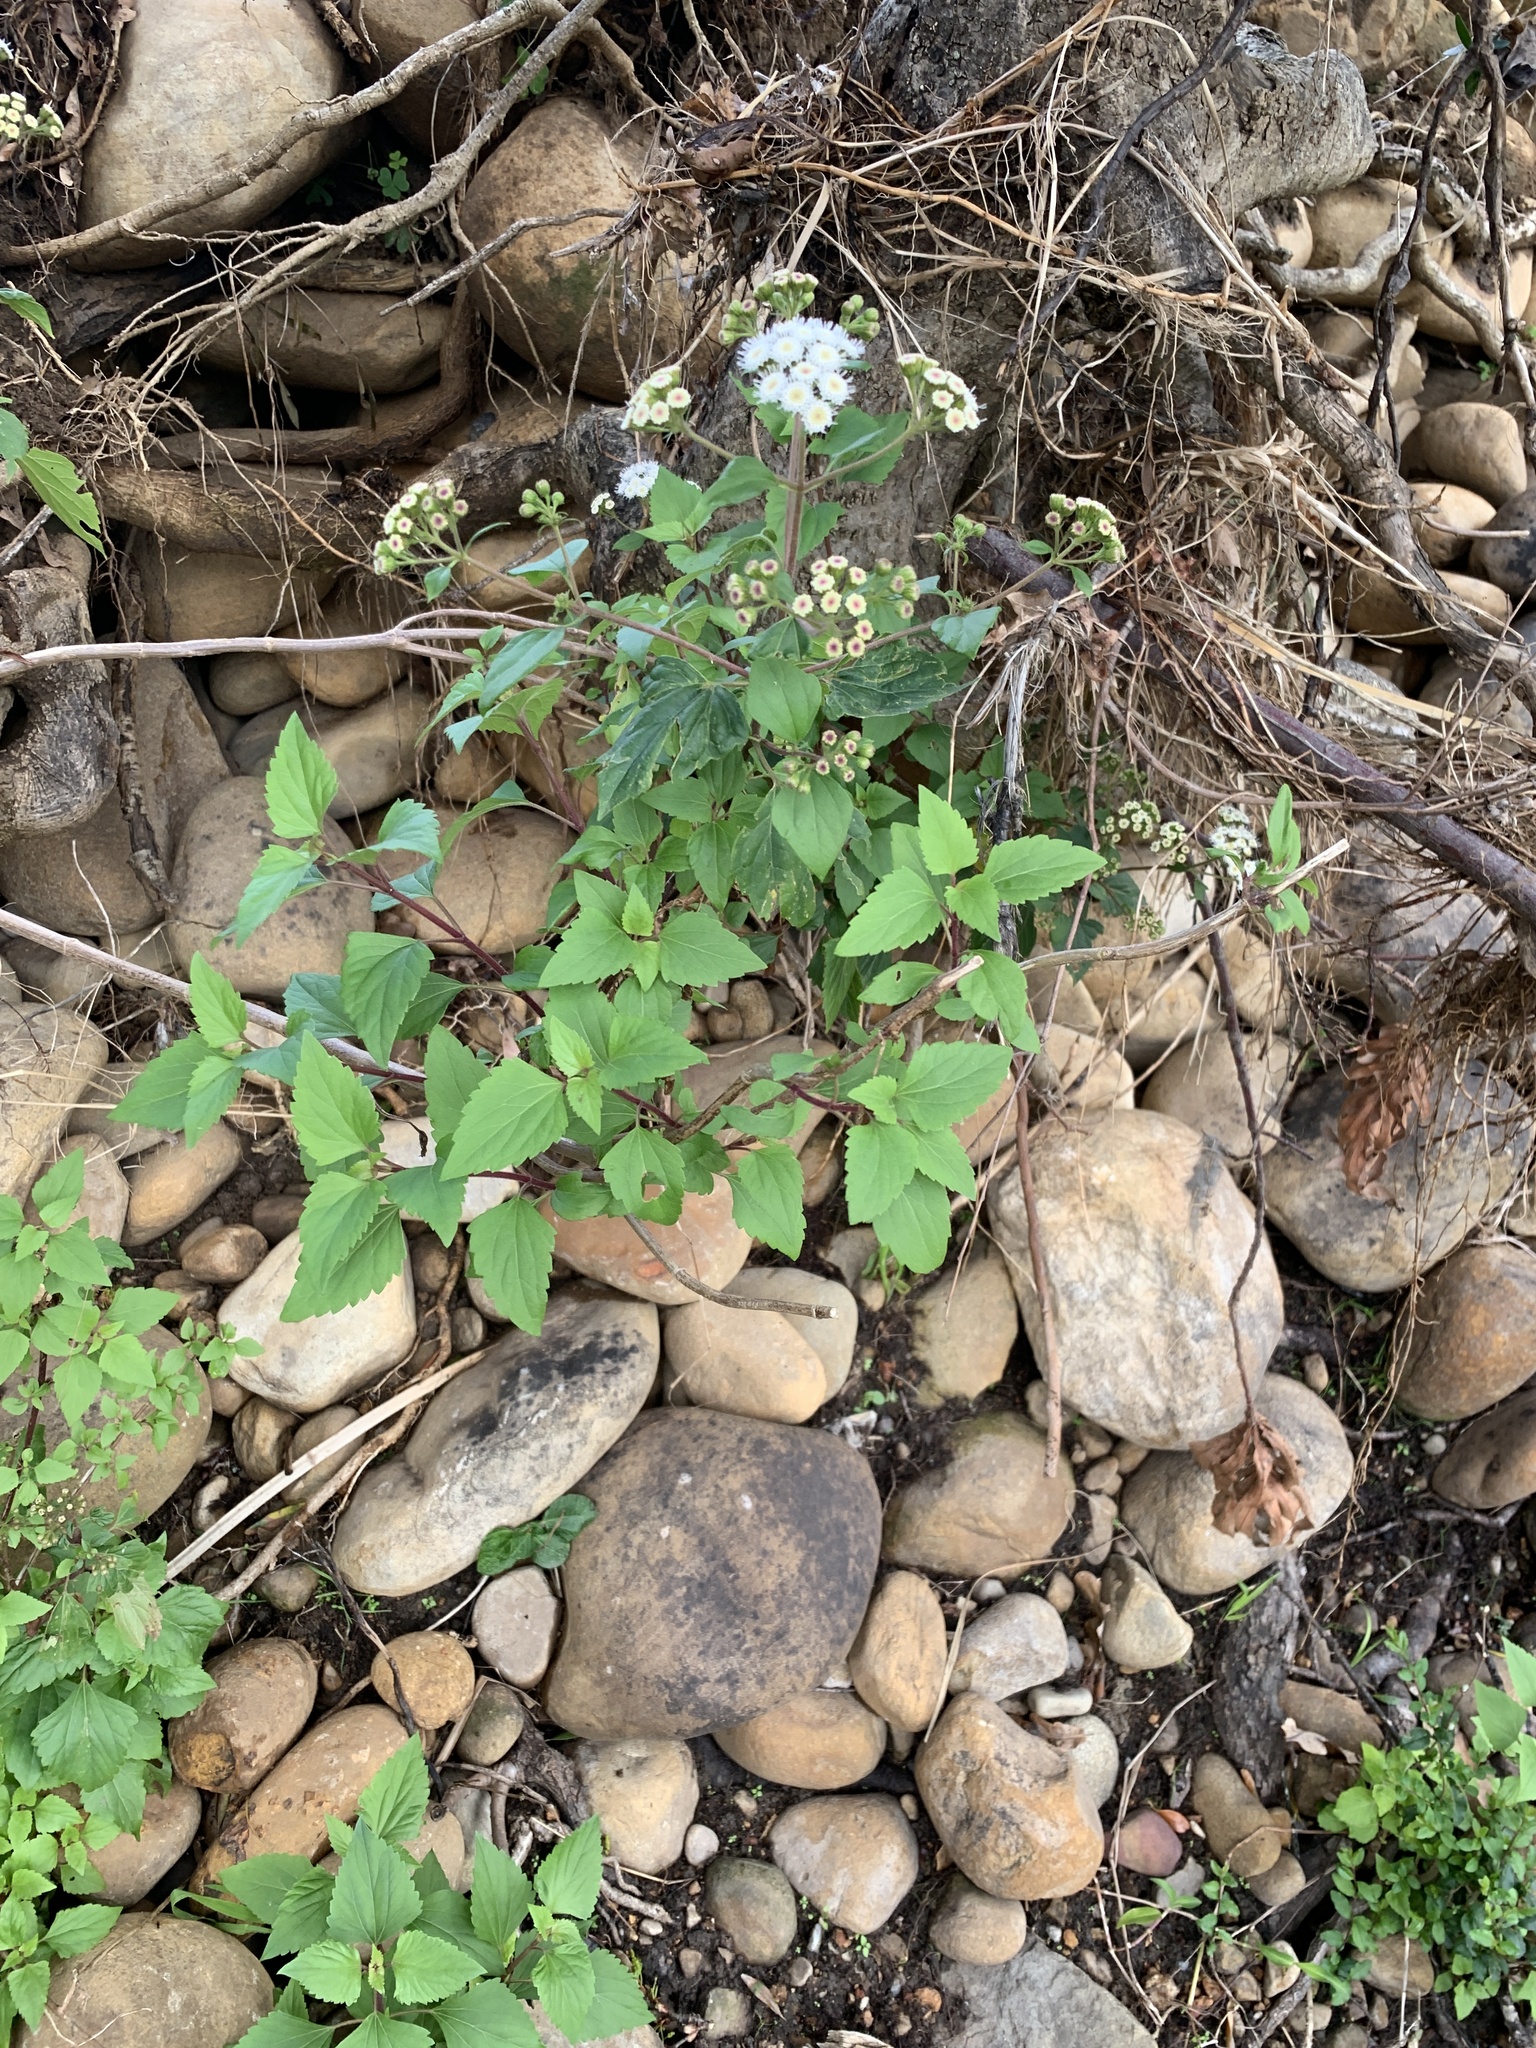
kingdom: Plantae
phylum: Tracheophyta
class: Magnoliopsida
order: Asterales
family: Asteraceae
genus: Ageratina
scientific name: Ageratina adenophora
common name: Sticky snakeroot
